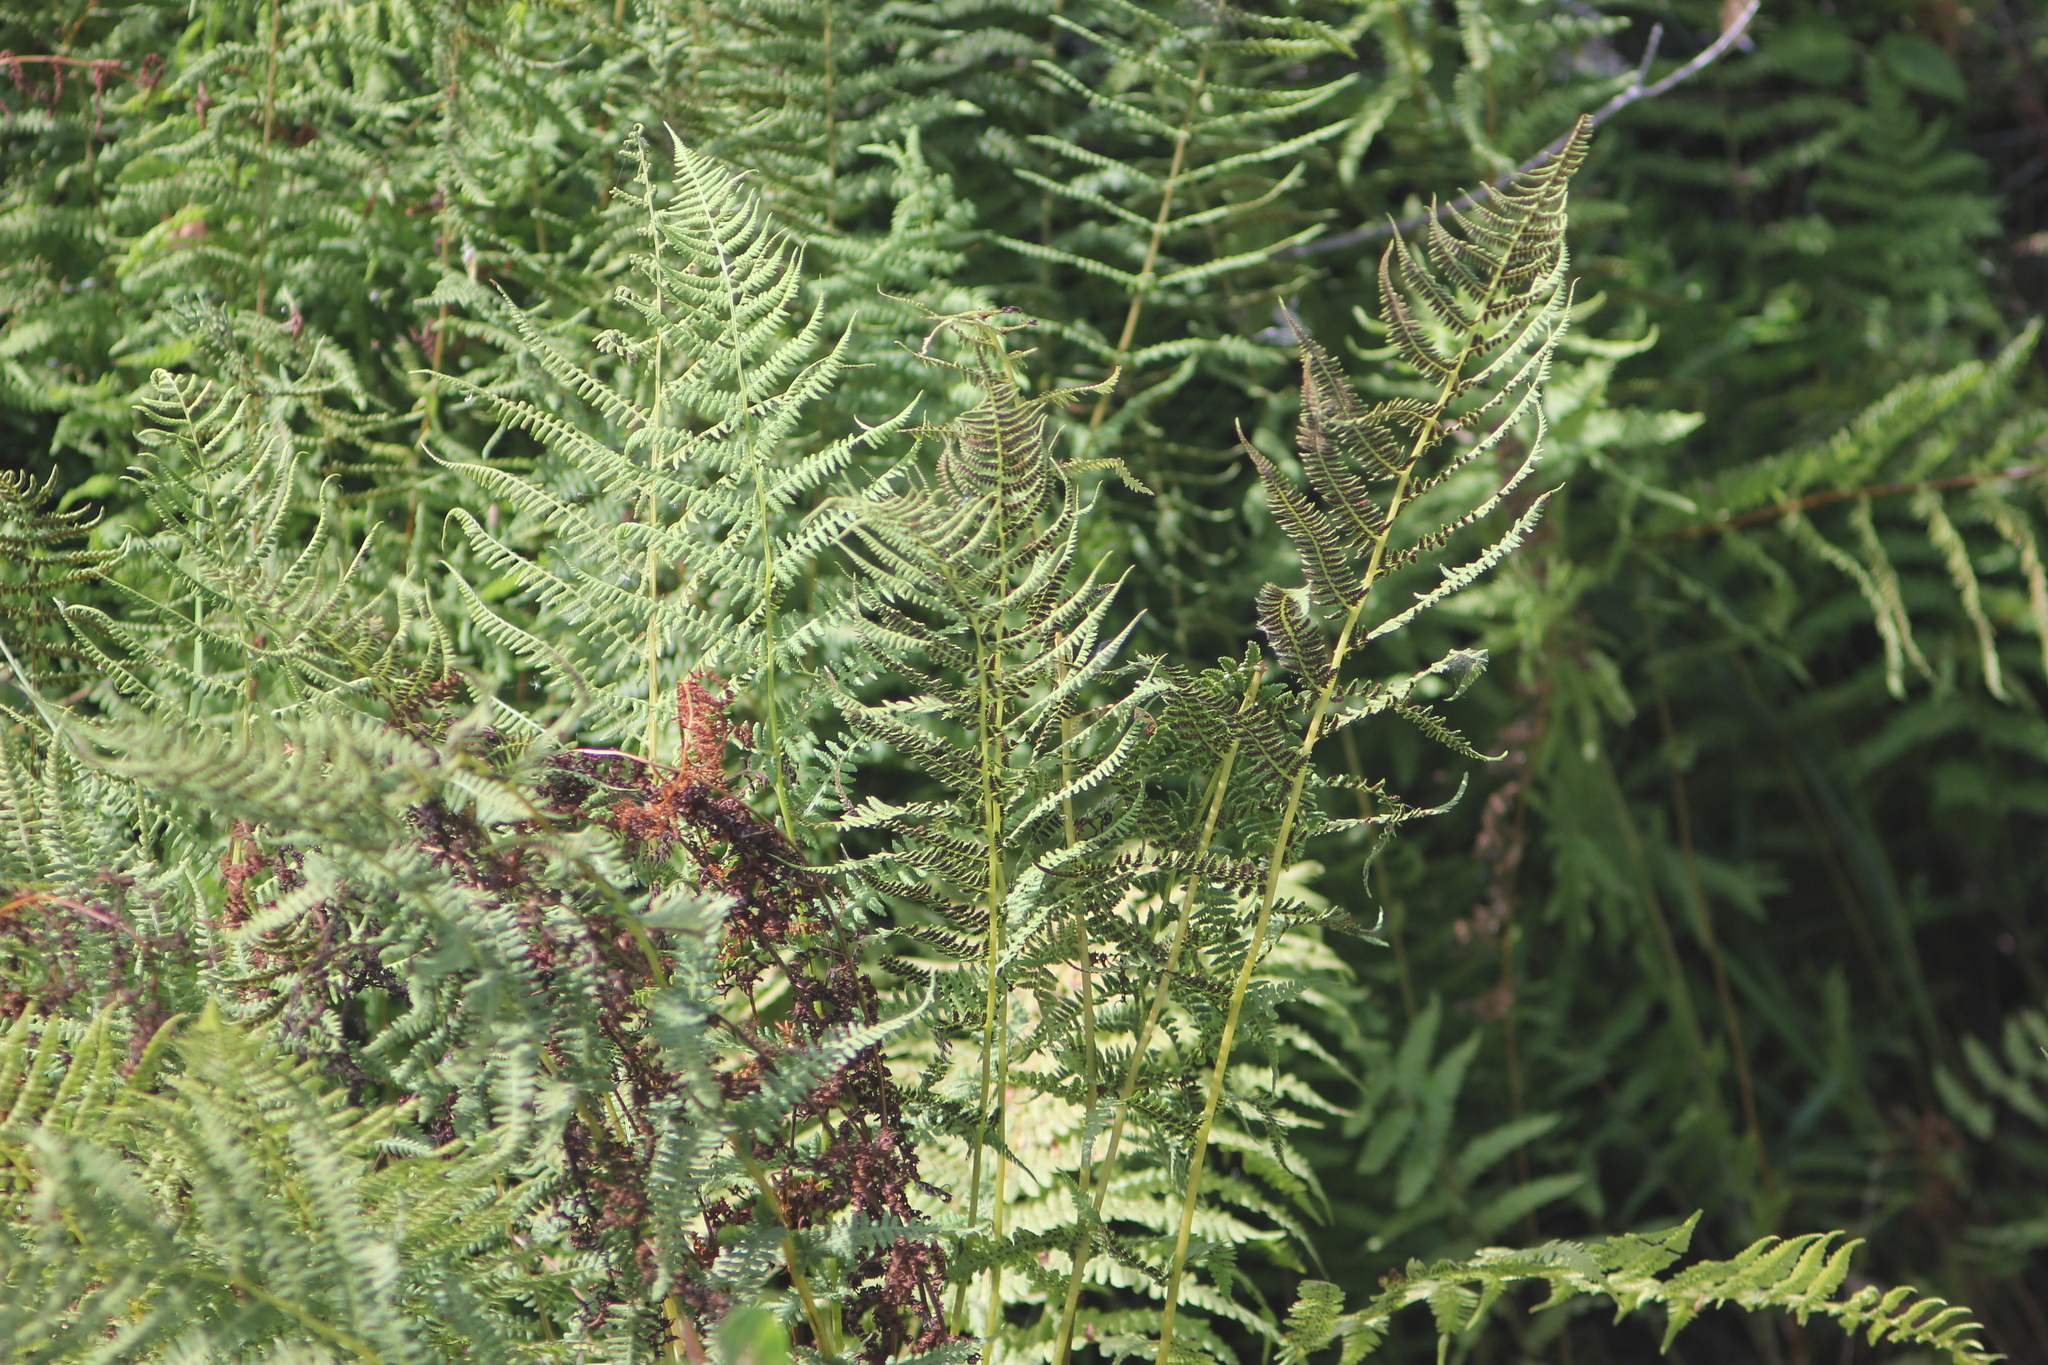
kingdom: Plantae
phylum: Tracheophyta
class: Polypodiopsida
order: Polypodiales
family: Athyriaceae
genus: Athyrium
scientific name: Athyrium filix-femina
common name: Lady fern
